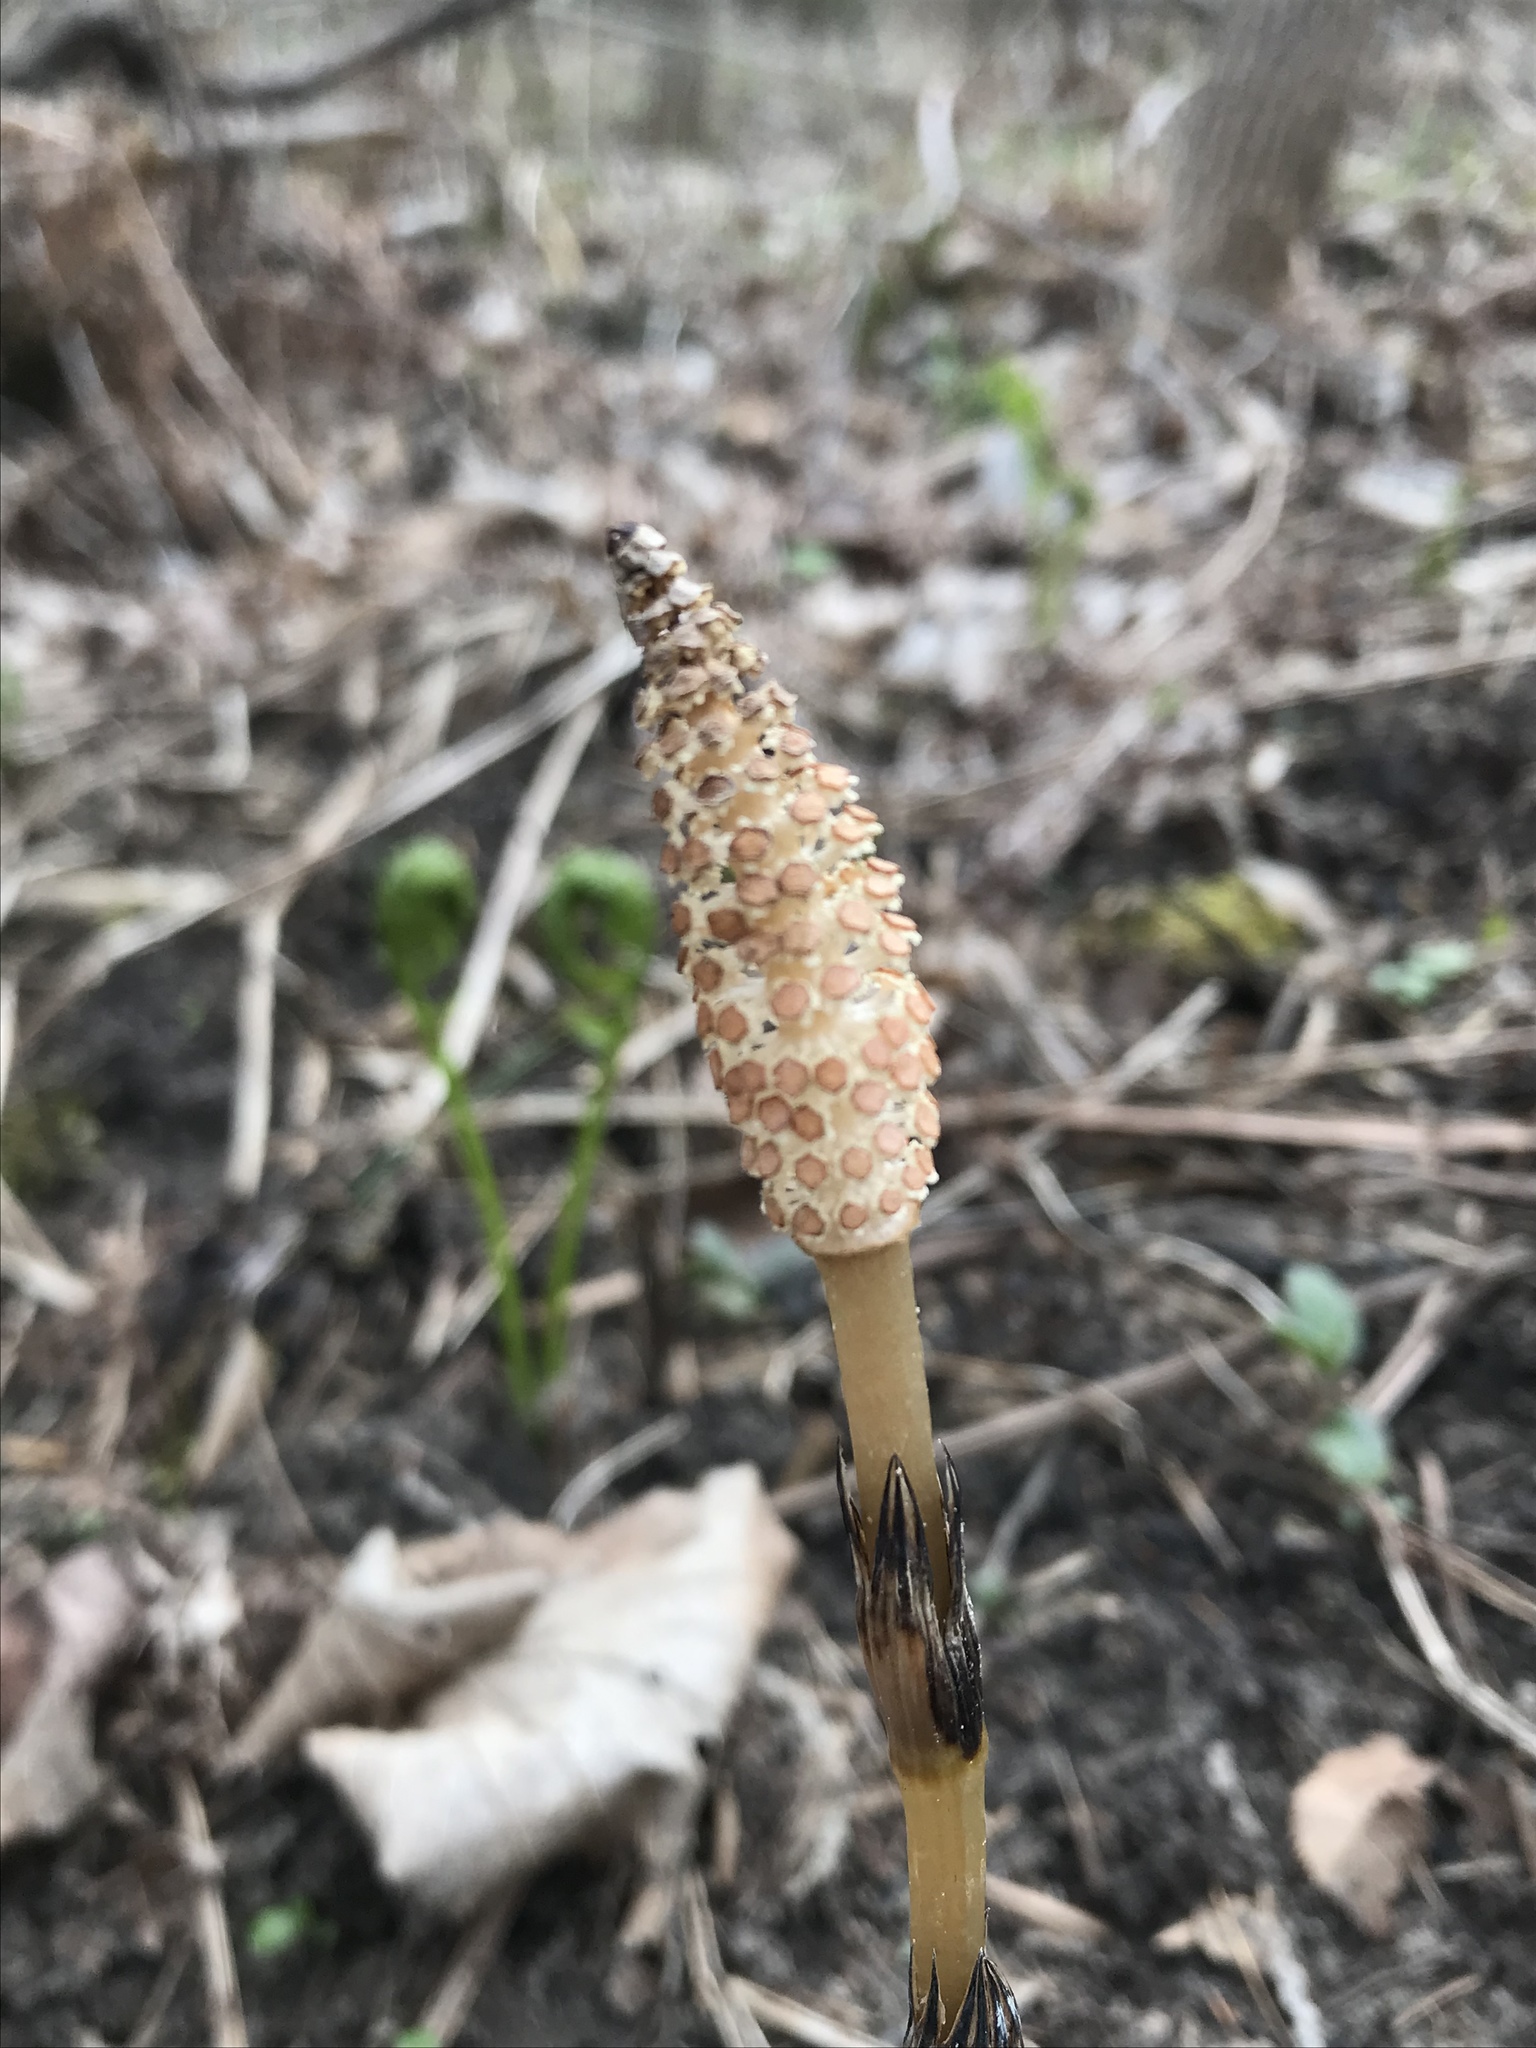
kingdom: Plantae
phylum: Tracheophyta
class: Polypodiopsida
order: Equisetales
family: Equisetaceae
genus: Equisetum
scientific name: Equisetum arvense
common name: Field horsetail
